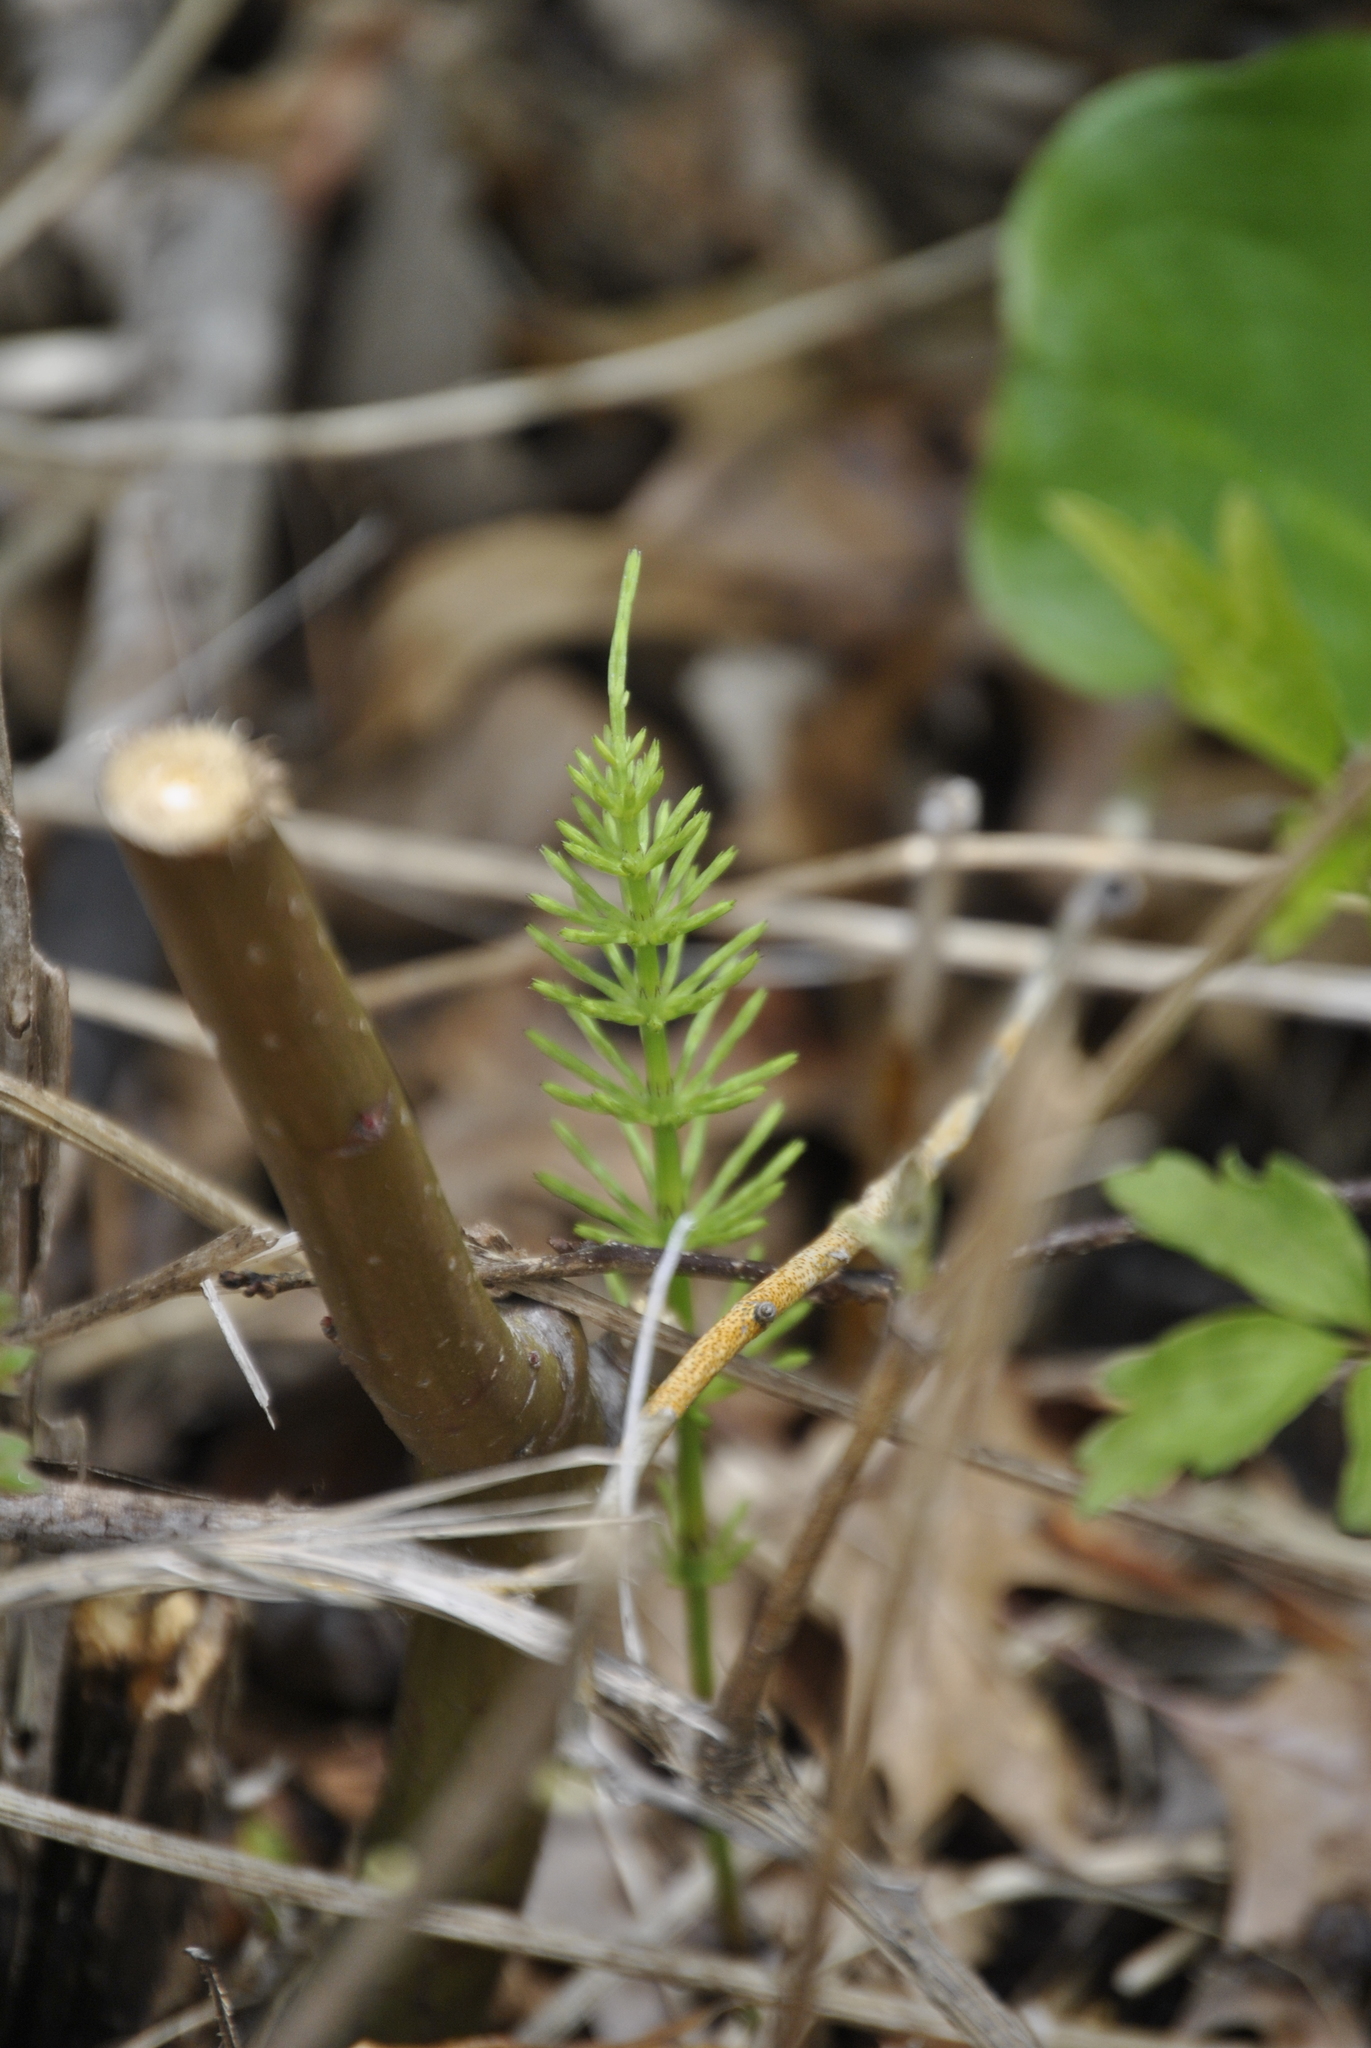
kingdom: Plantae
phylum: Tracheophyta
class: Polypodiopsida
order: Equisetales
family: Equisetaceae
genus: Equisetum
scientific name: Equisetum arvense
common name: Field horsetail
